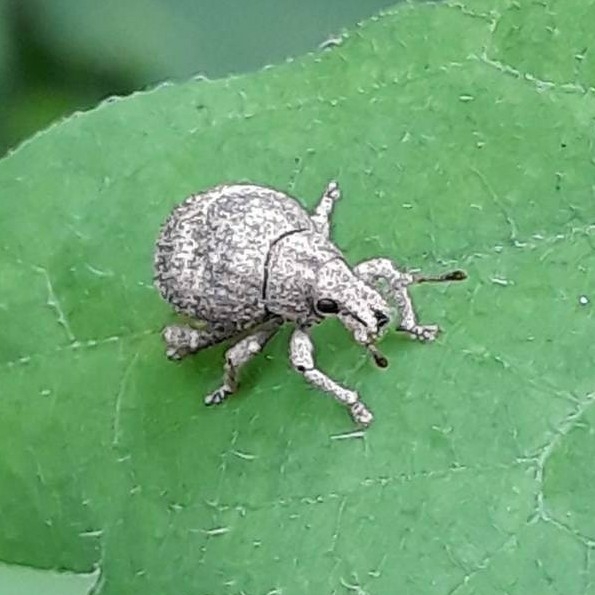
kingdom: Animalia
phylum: Arthropoda
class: Insecta
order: Coleoptera
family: Curculionidae
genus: Pseudocneorhinus
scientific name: Pseudocneorhinus bifasciatus
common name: Two-banded japanese weevil
